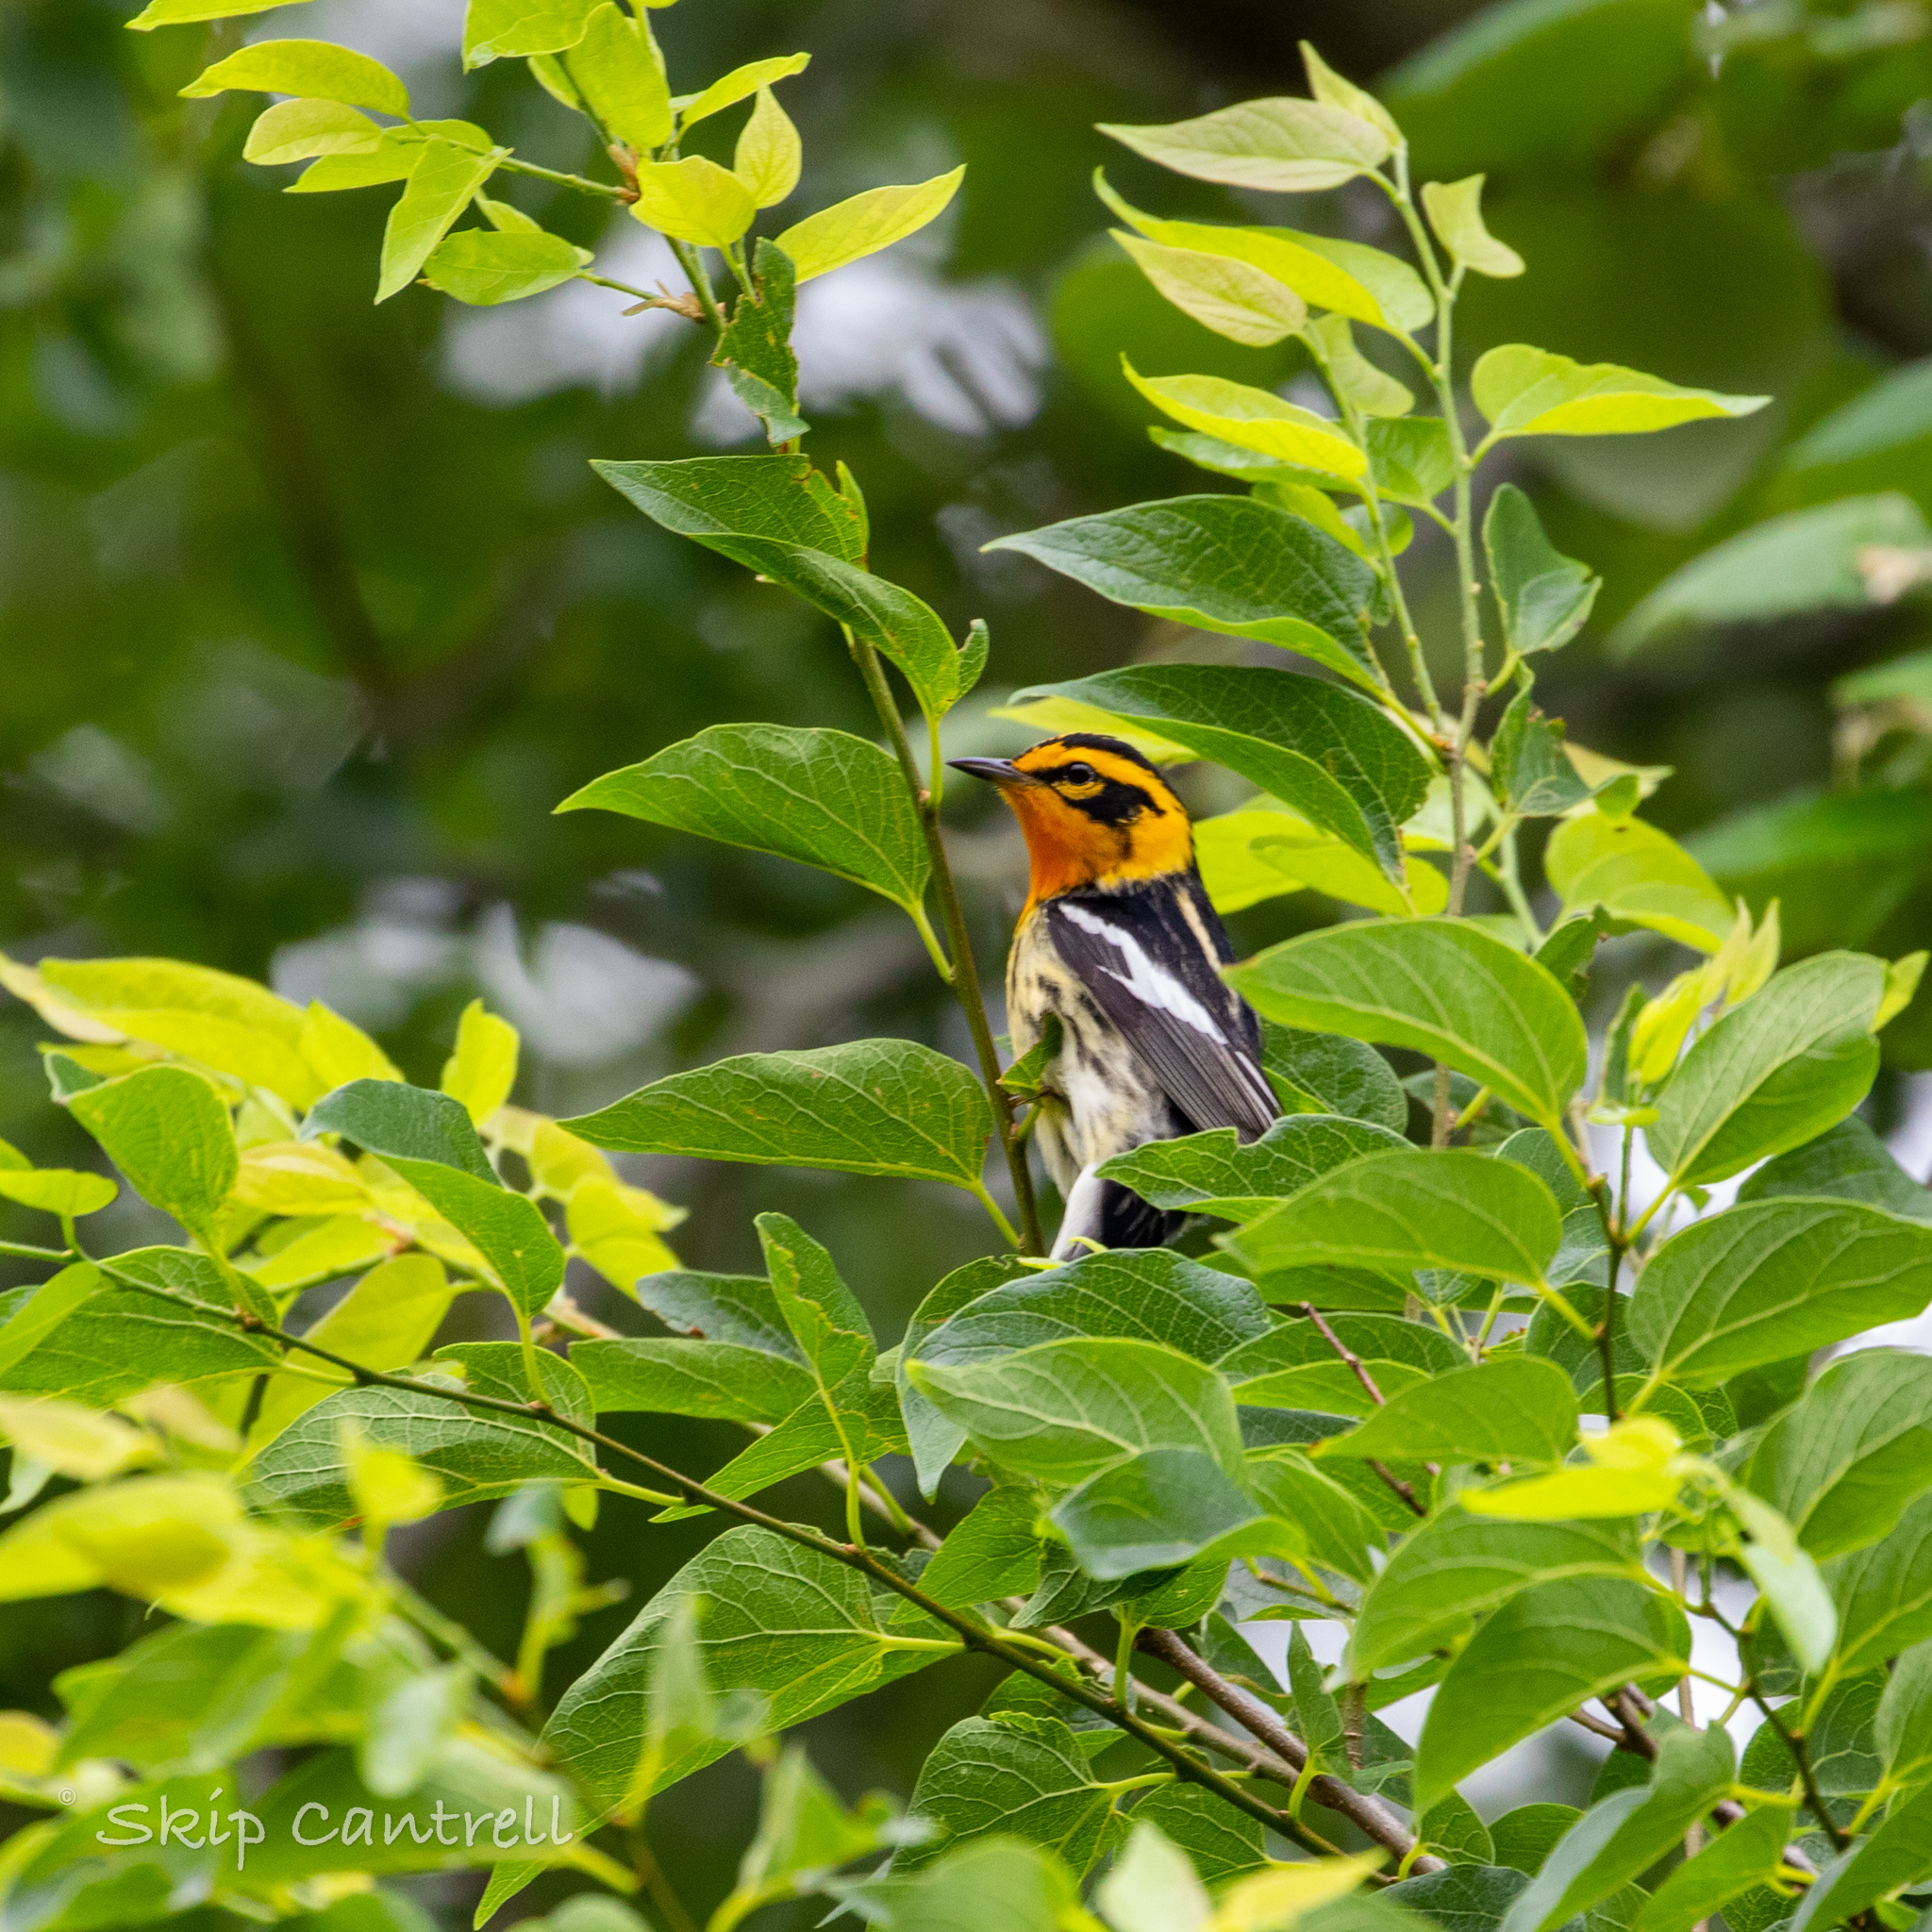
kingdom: Animalia
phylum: Chordata
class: Aves
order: Passeriformes
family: Parulidae
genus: Setophaga
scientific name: Setophaga fusca
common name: Blackburnian warbler
